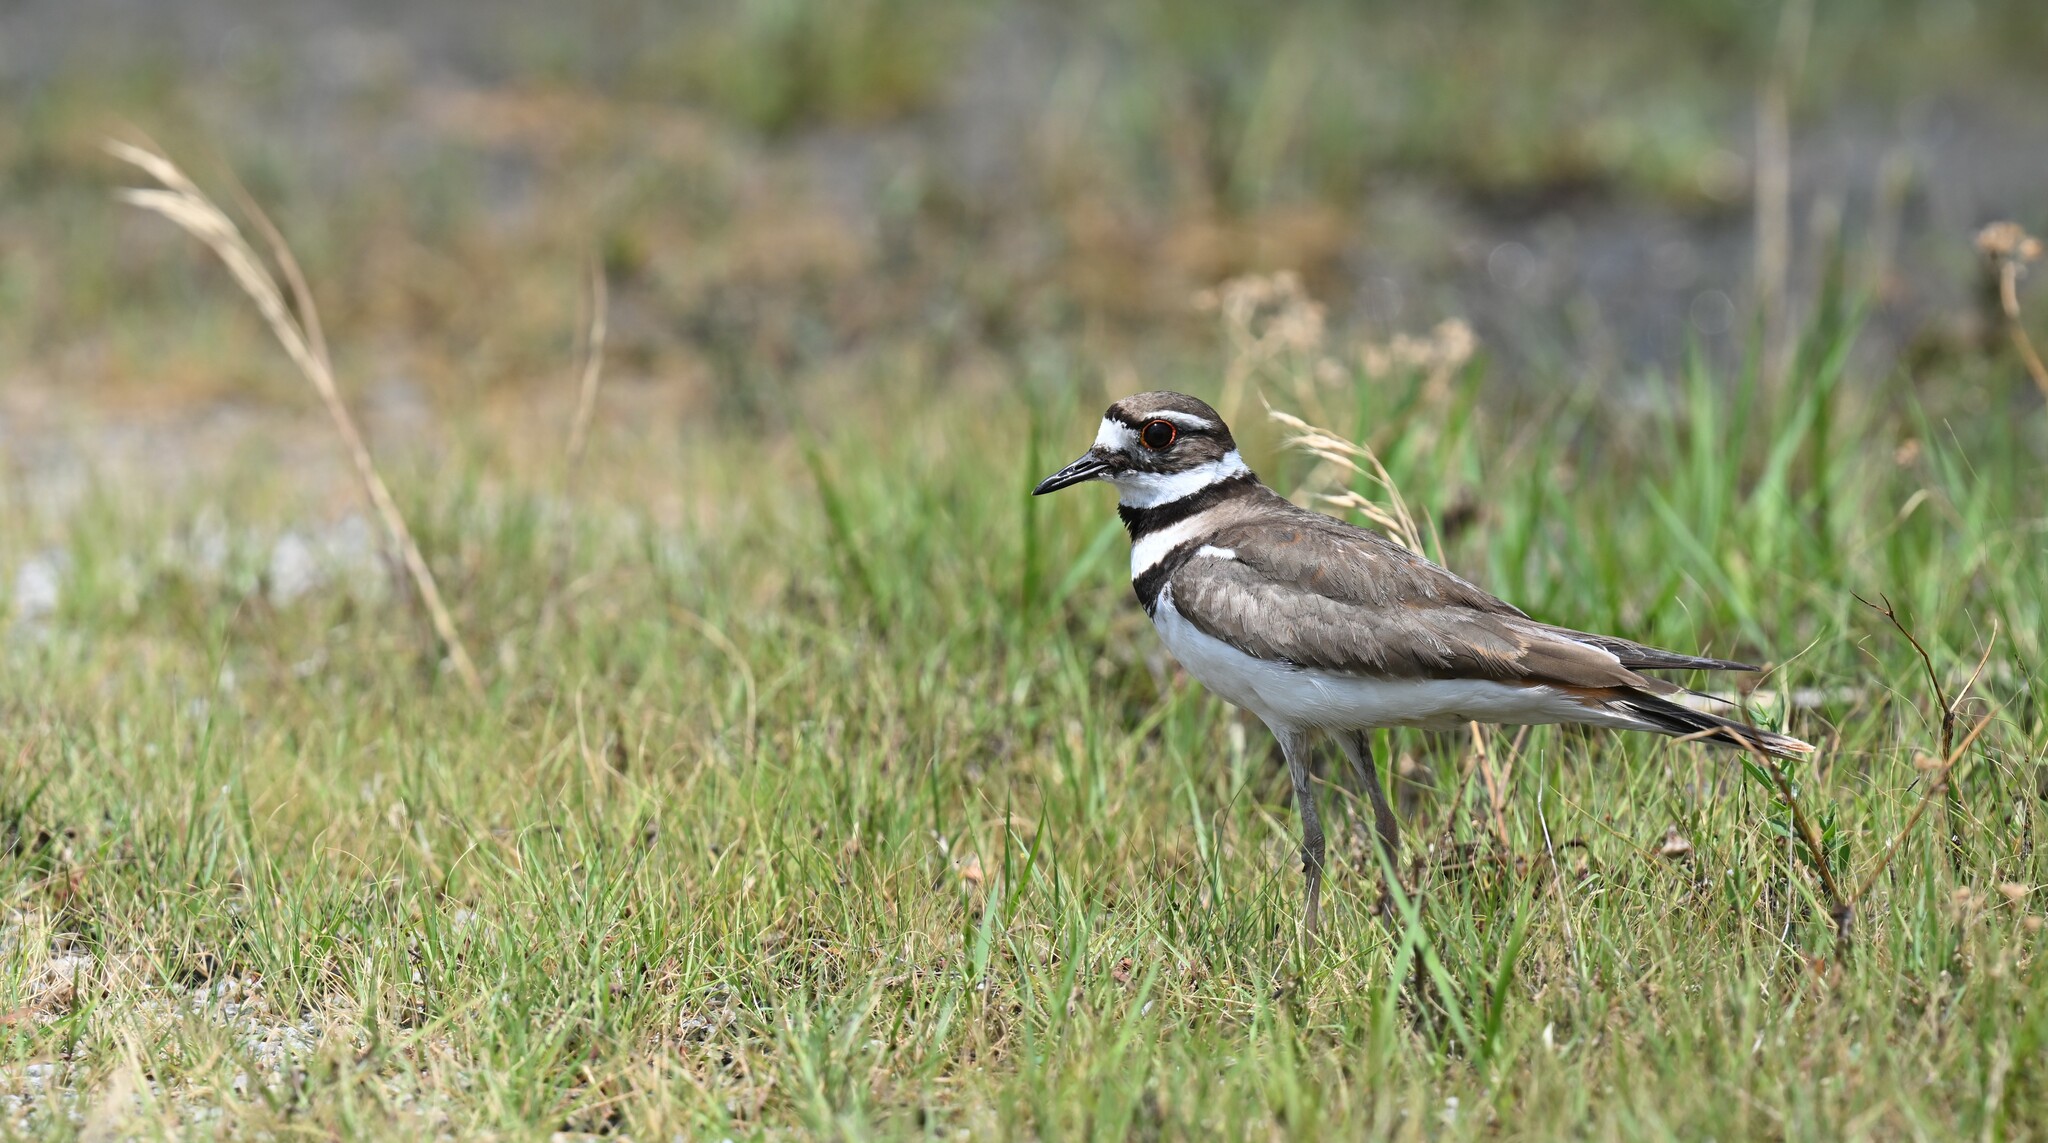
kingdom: Animalia
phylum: Chordata
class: Aves
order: Charadriiformes
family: Charadriidae
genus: Charadrius
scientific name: Charadrius vociferus
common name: Killdeer
